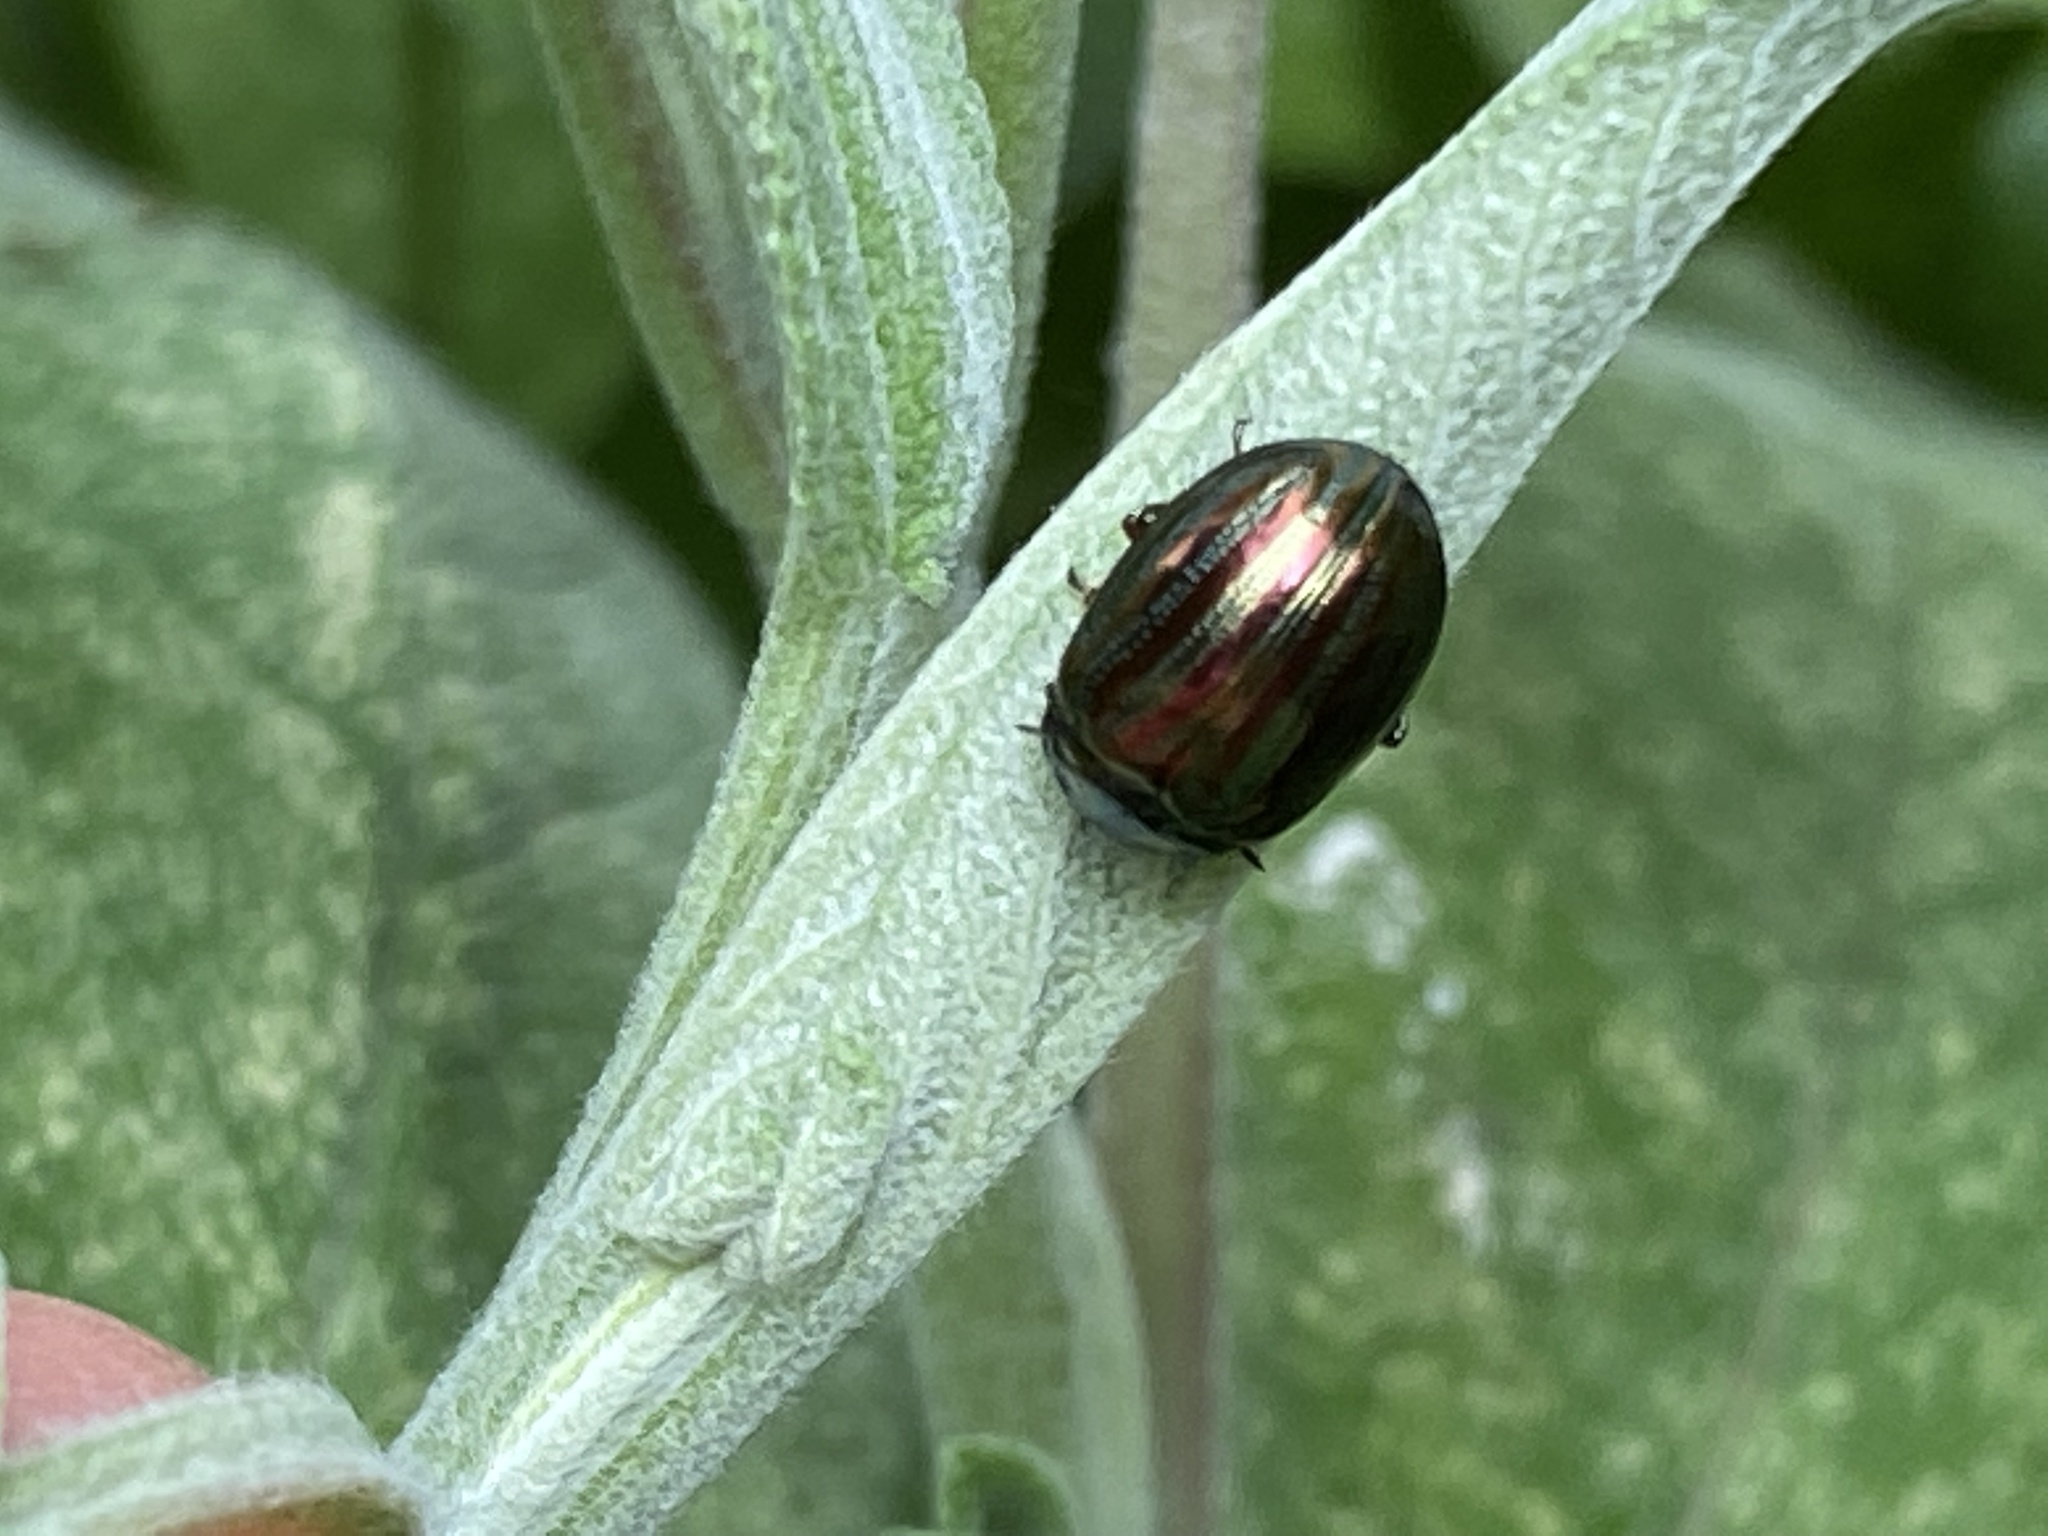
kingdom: Animalia
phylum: Arthropoda
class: Insecta
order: Coleoptera
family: Chrysomelidae
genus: Chrysolina
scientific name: Chrysolina americana
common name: Rosemary beetle
